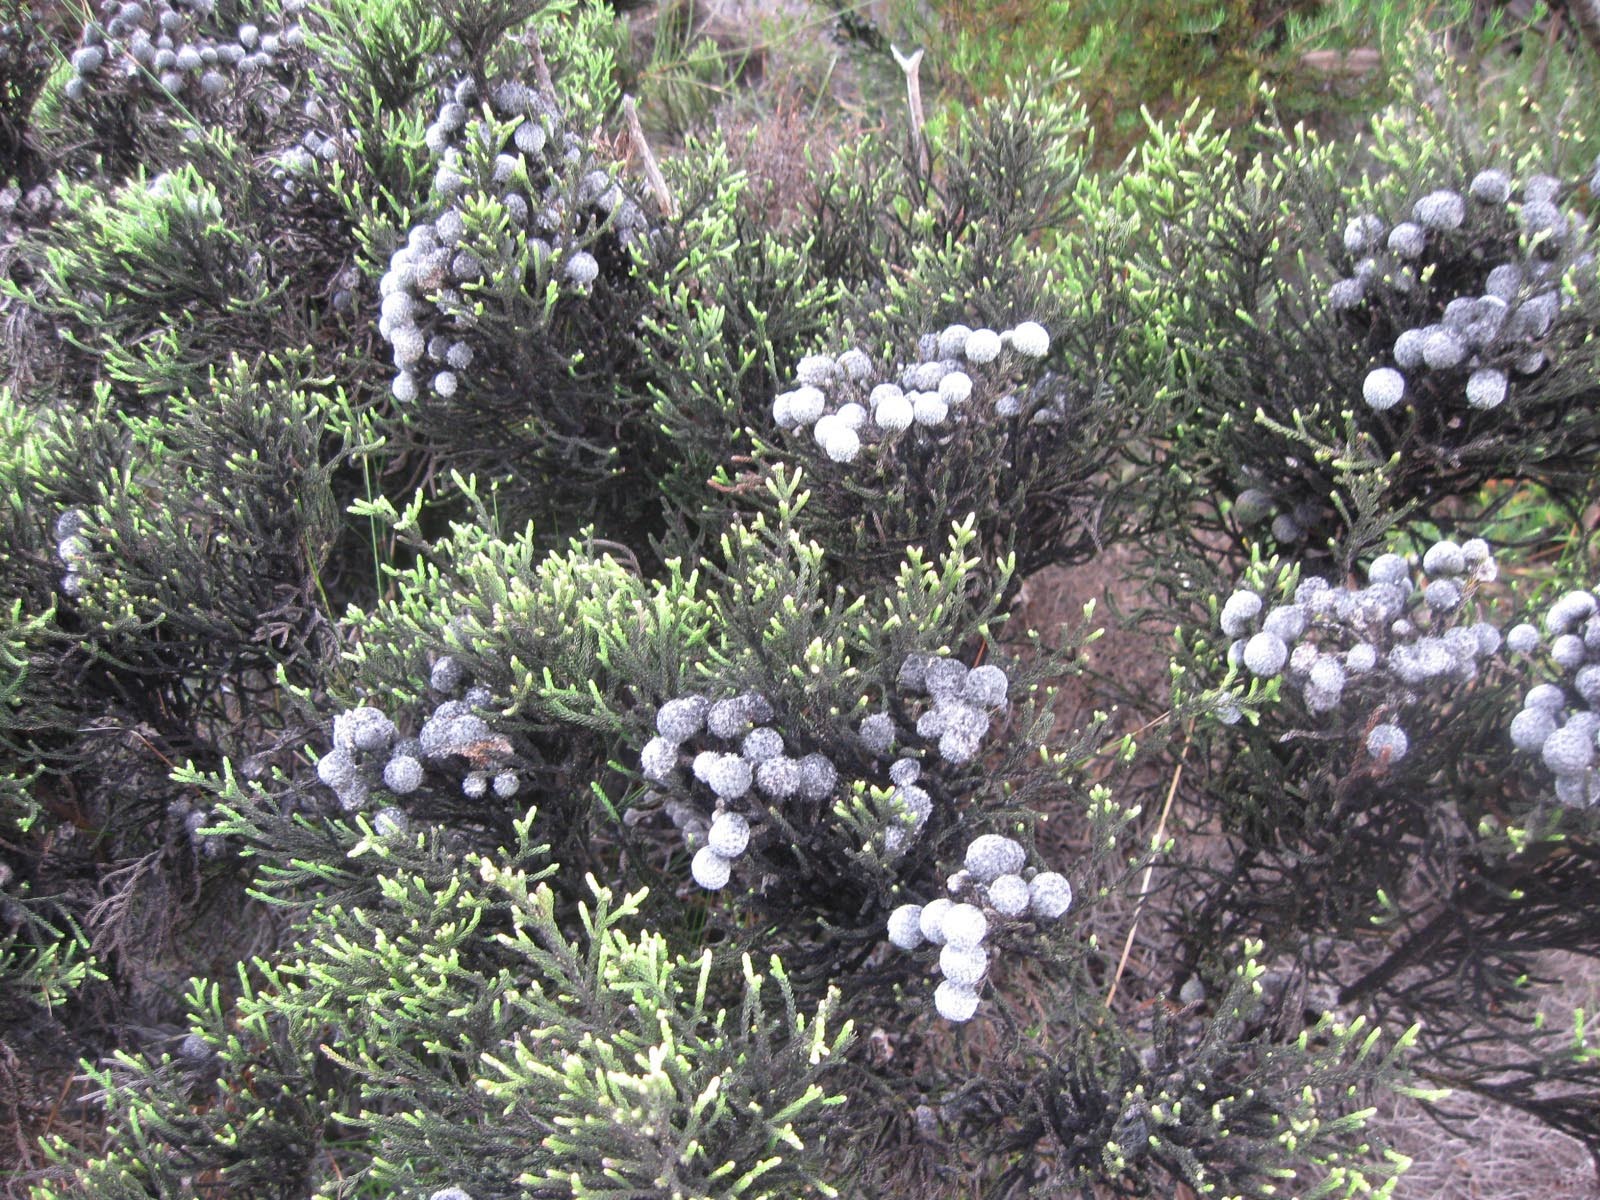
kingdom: Plantae
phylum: Tracheophyta
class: Magnoliopsida
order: Bruniales
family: Bruniaceae
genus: Brunia
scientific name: Brunia noduliflora
